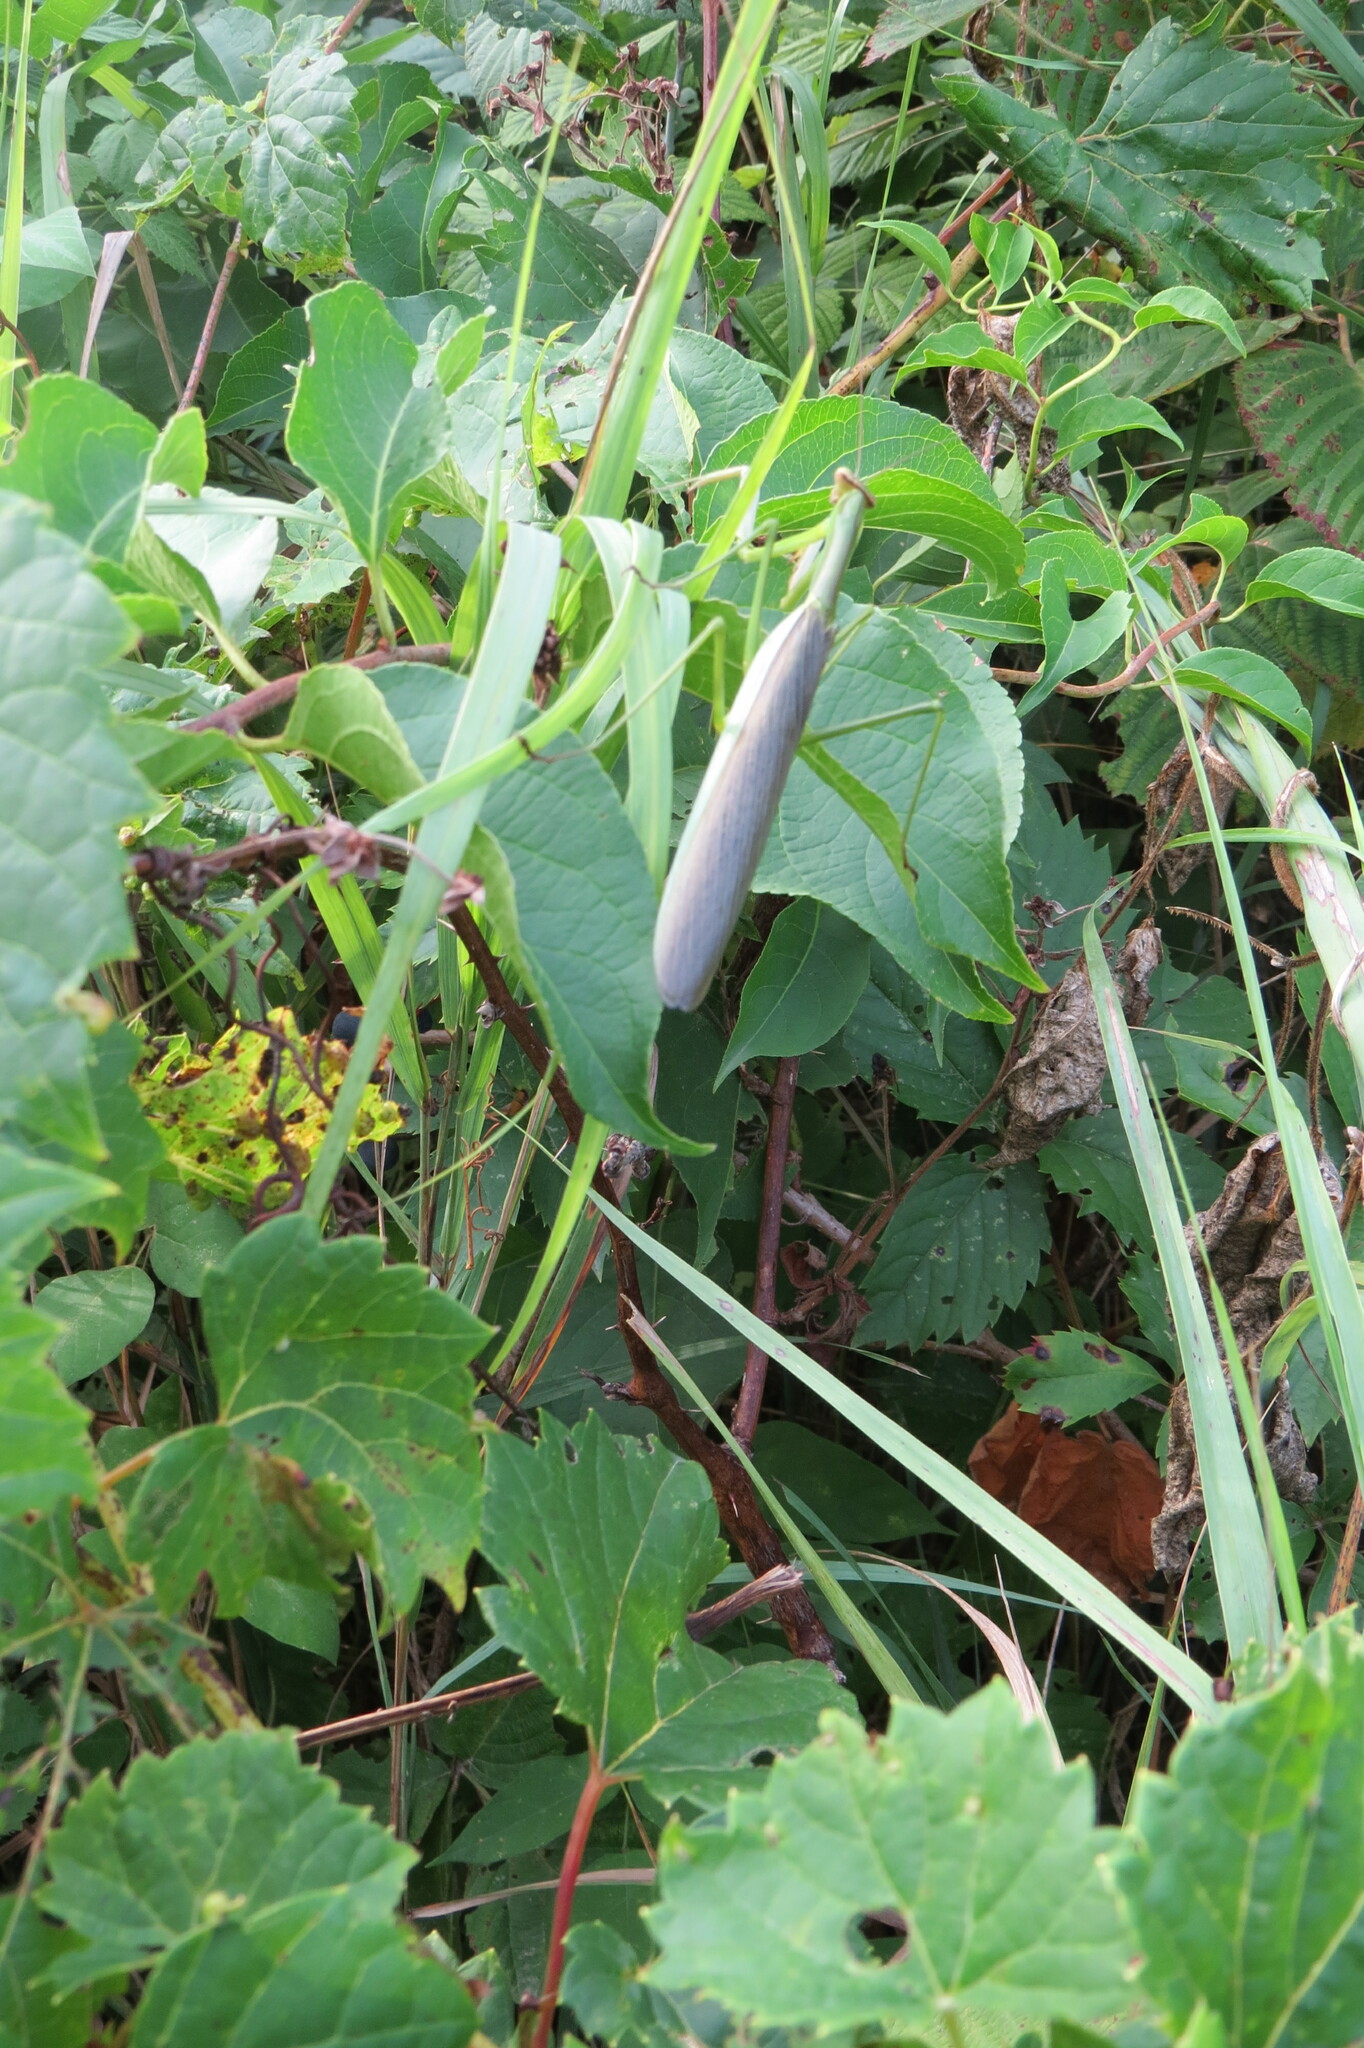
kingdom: Animalia
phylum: Arthropoda
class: Insecta
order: Mantodea
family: Mantidae
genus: Mantis
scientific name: Mantis religiosa
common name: Praying mantis
